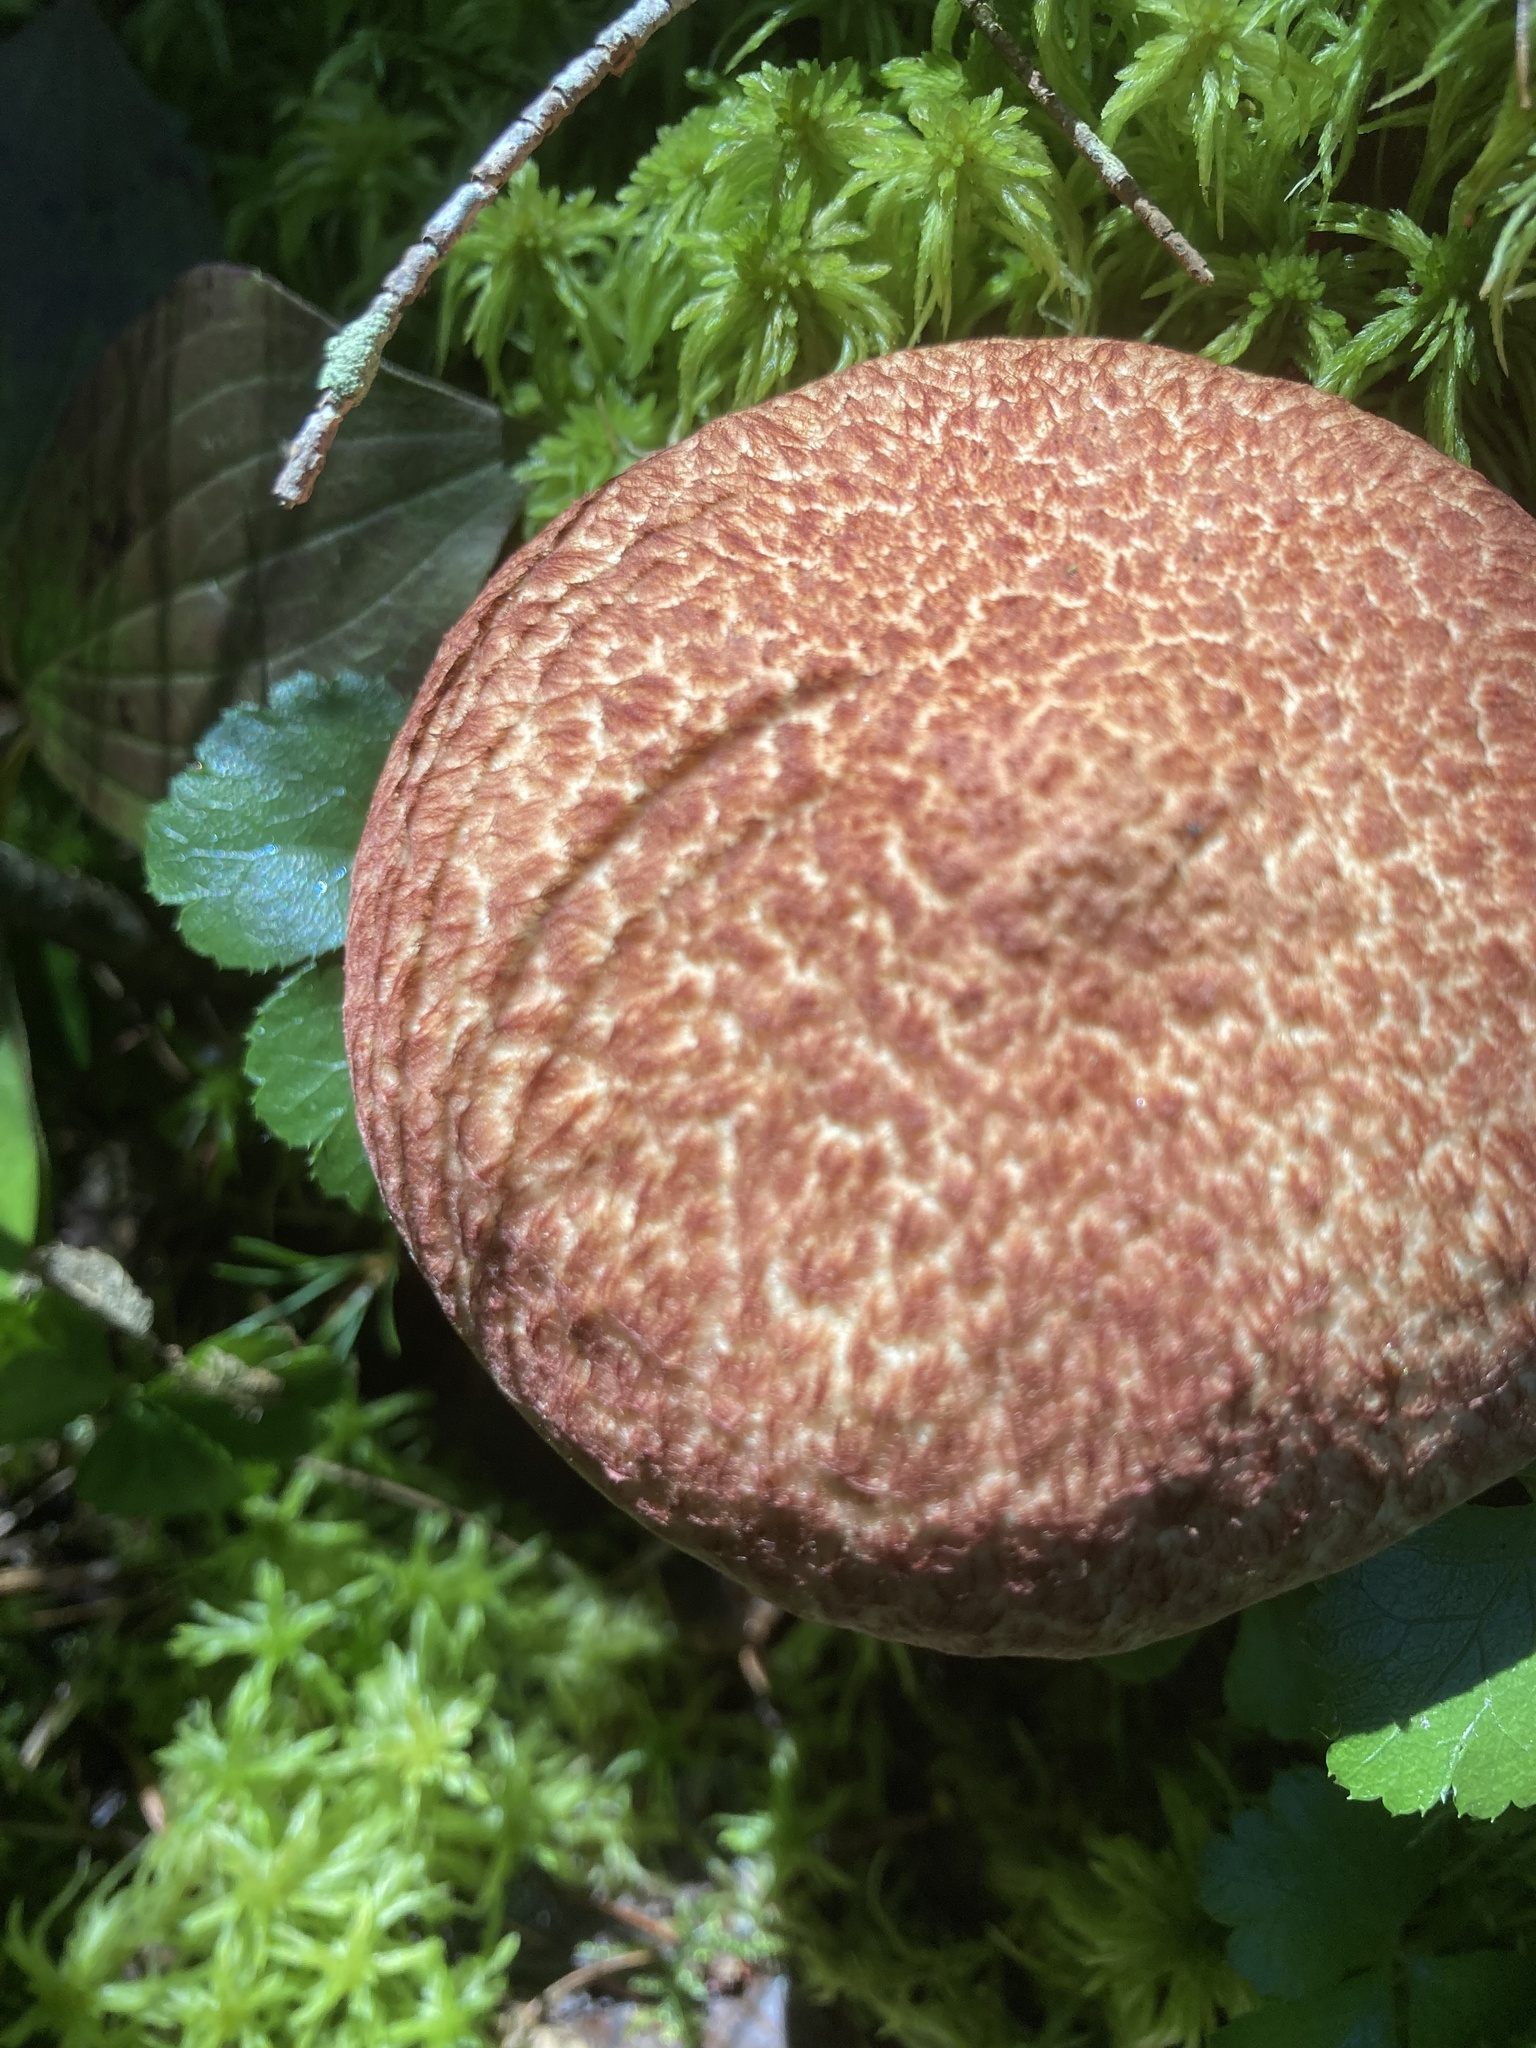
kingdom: Fungi
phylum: Basidiomycota
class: Agaricomycetes
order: Boletales
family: Suillaceae
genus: Suillus
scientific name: Suillus spraguei
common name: Painted suillus
